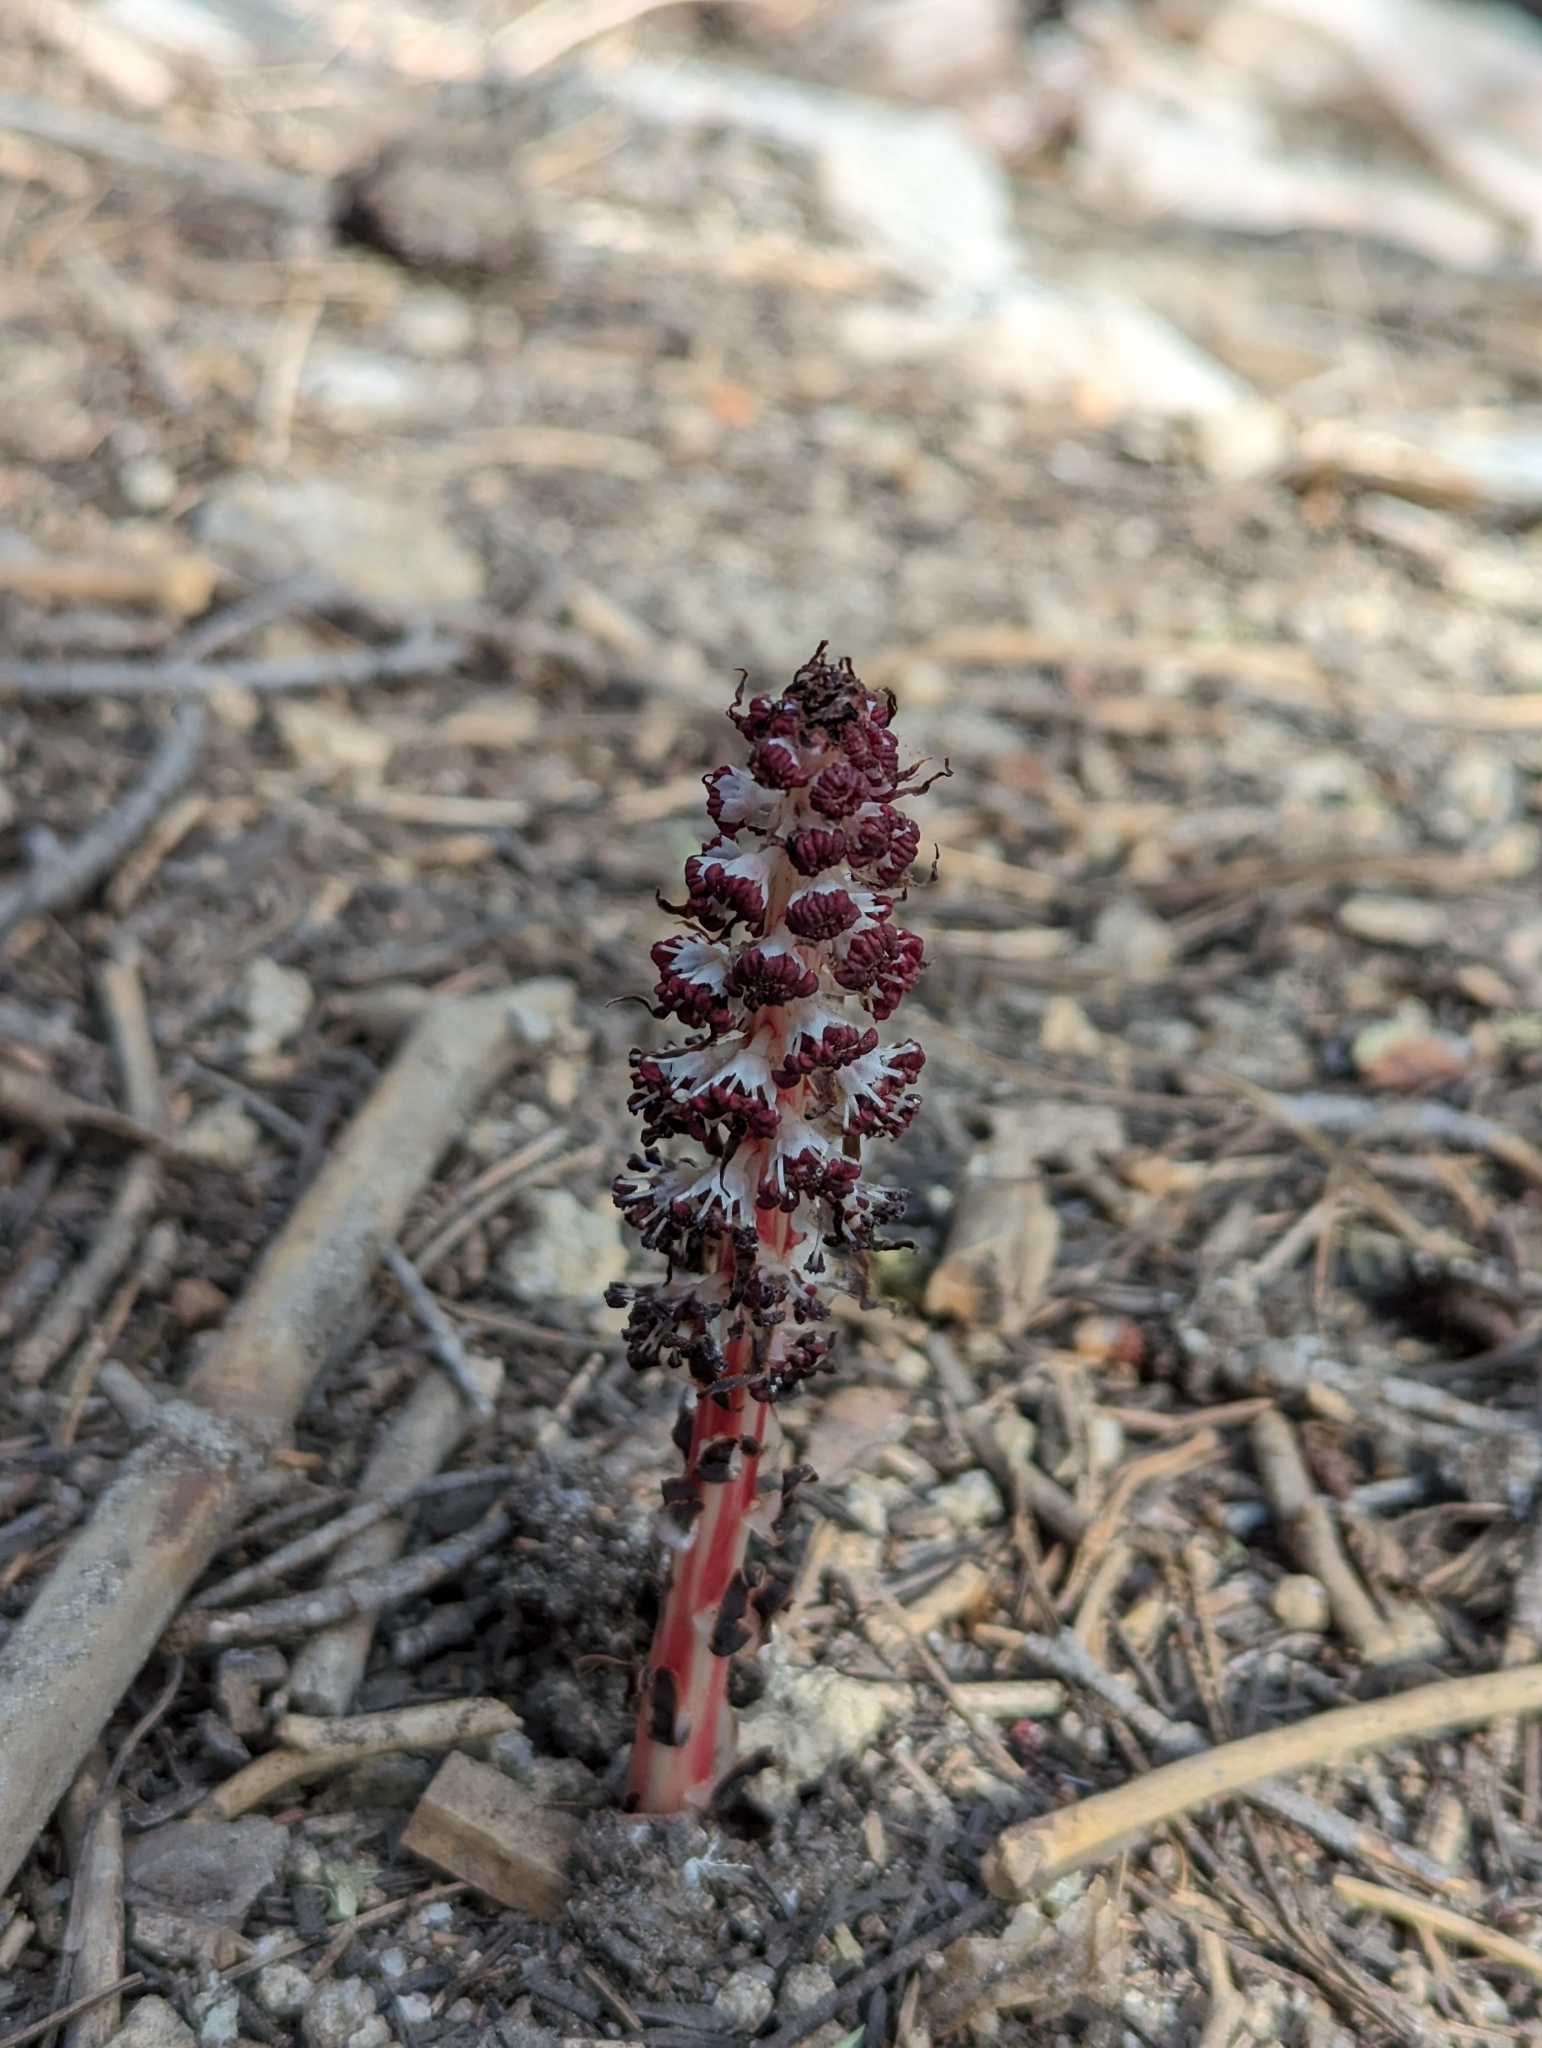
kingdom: Plantae
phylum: Tracheophyta
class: Magnoliopsida
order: Ericales
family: Ericaceae
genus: Allotropa
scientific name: Allotropa virgata
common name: Candy-striped allotropa
